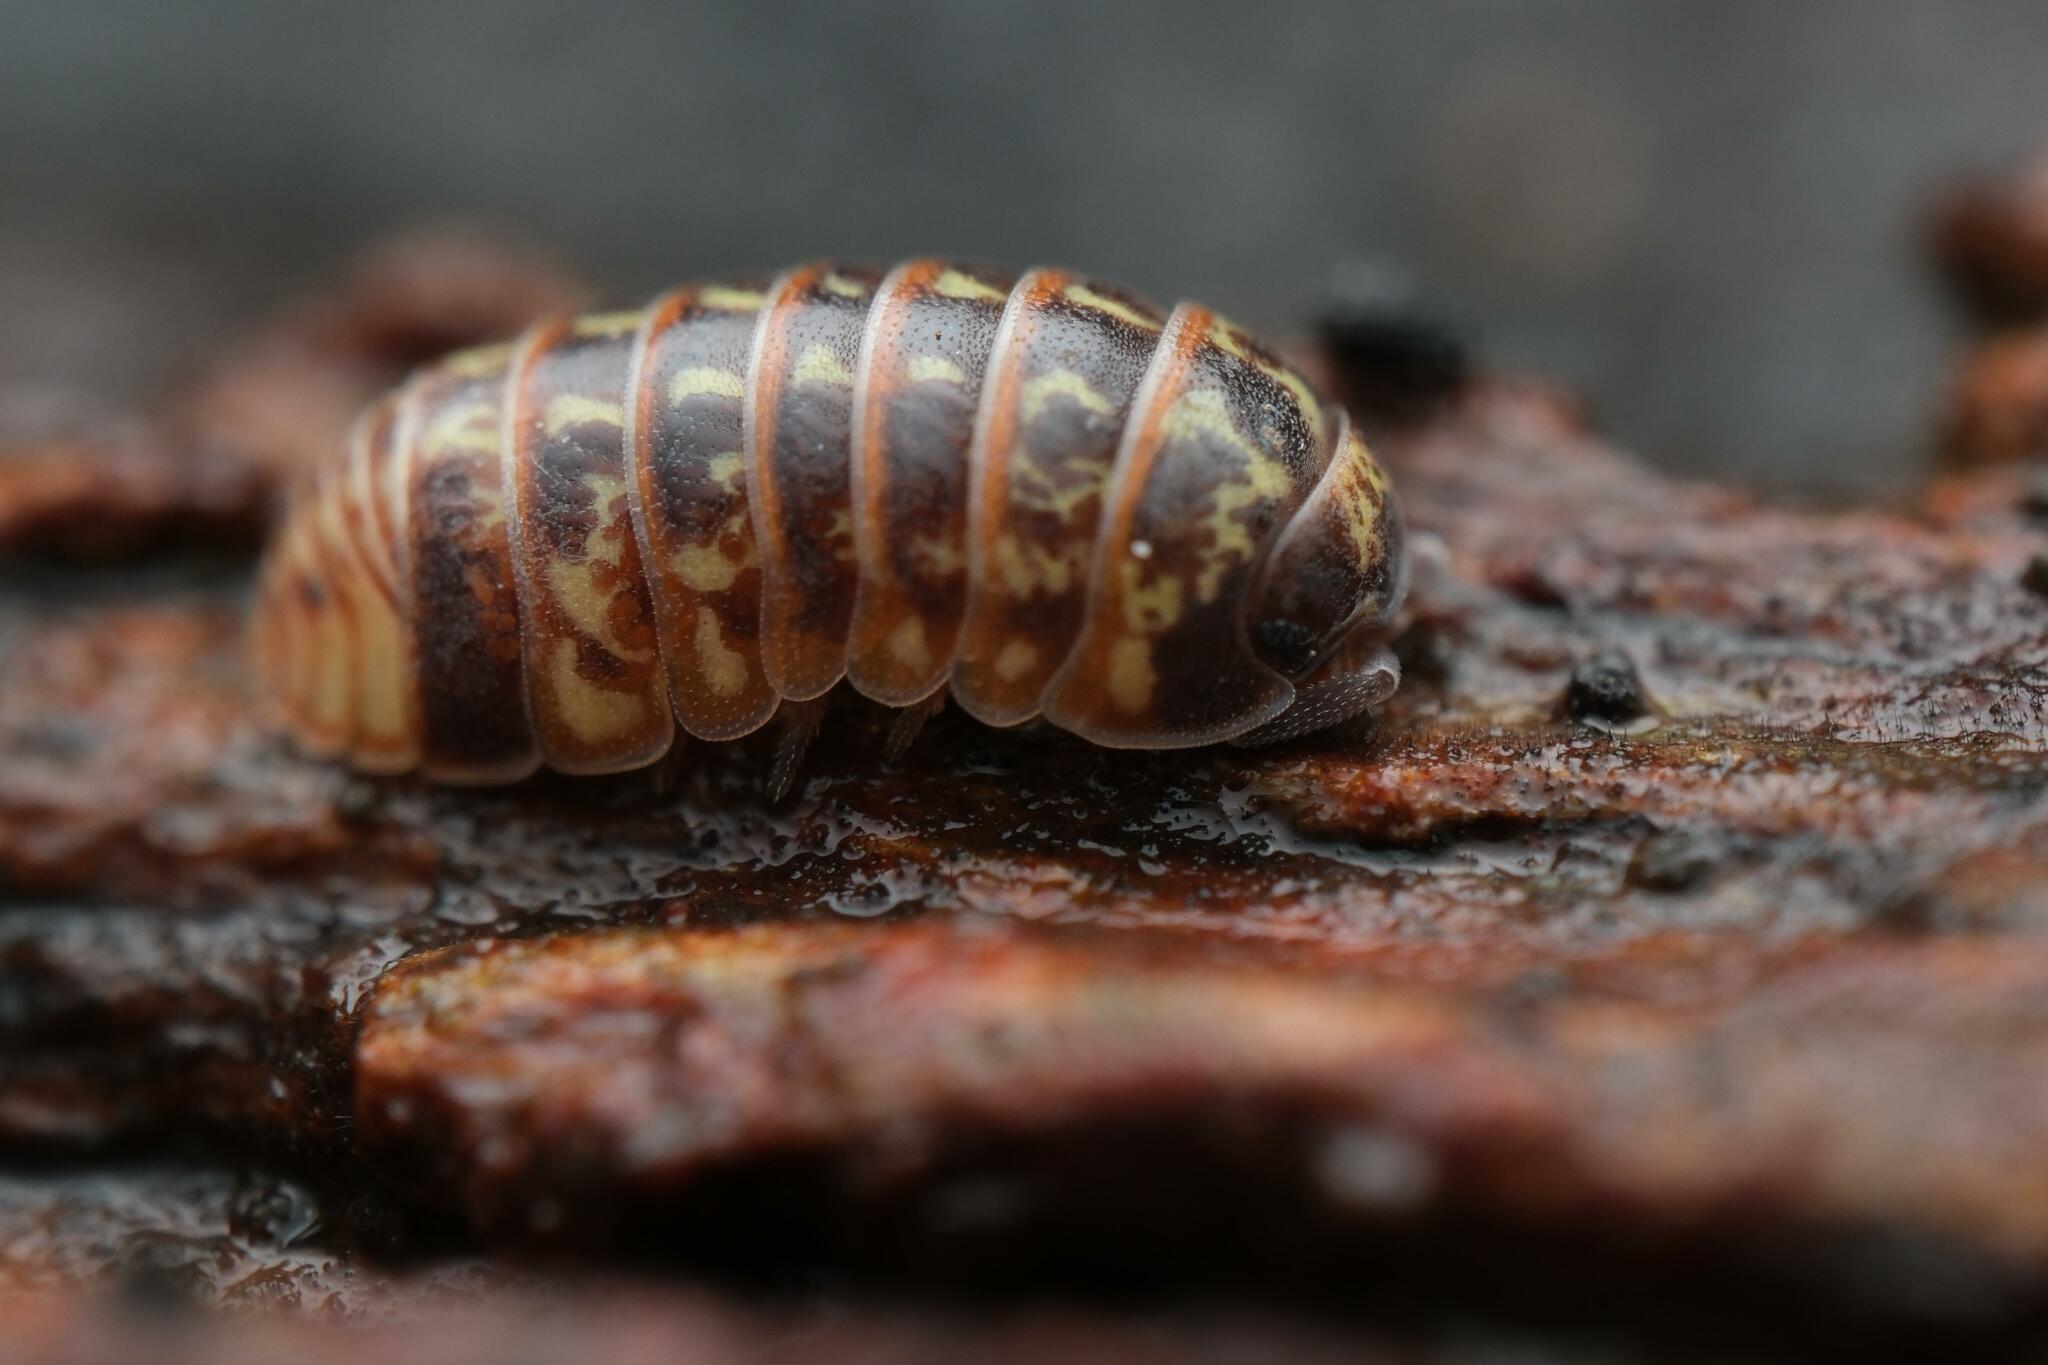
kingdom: Animalia
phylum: Arthropoda
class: Malacostraca
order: Isopoda
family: Armadillidiidae
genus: Armadillidium
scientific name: Armadillidium pulchellum
